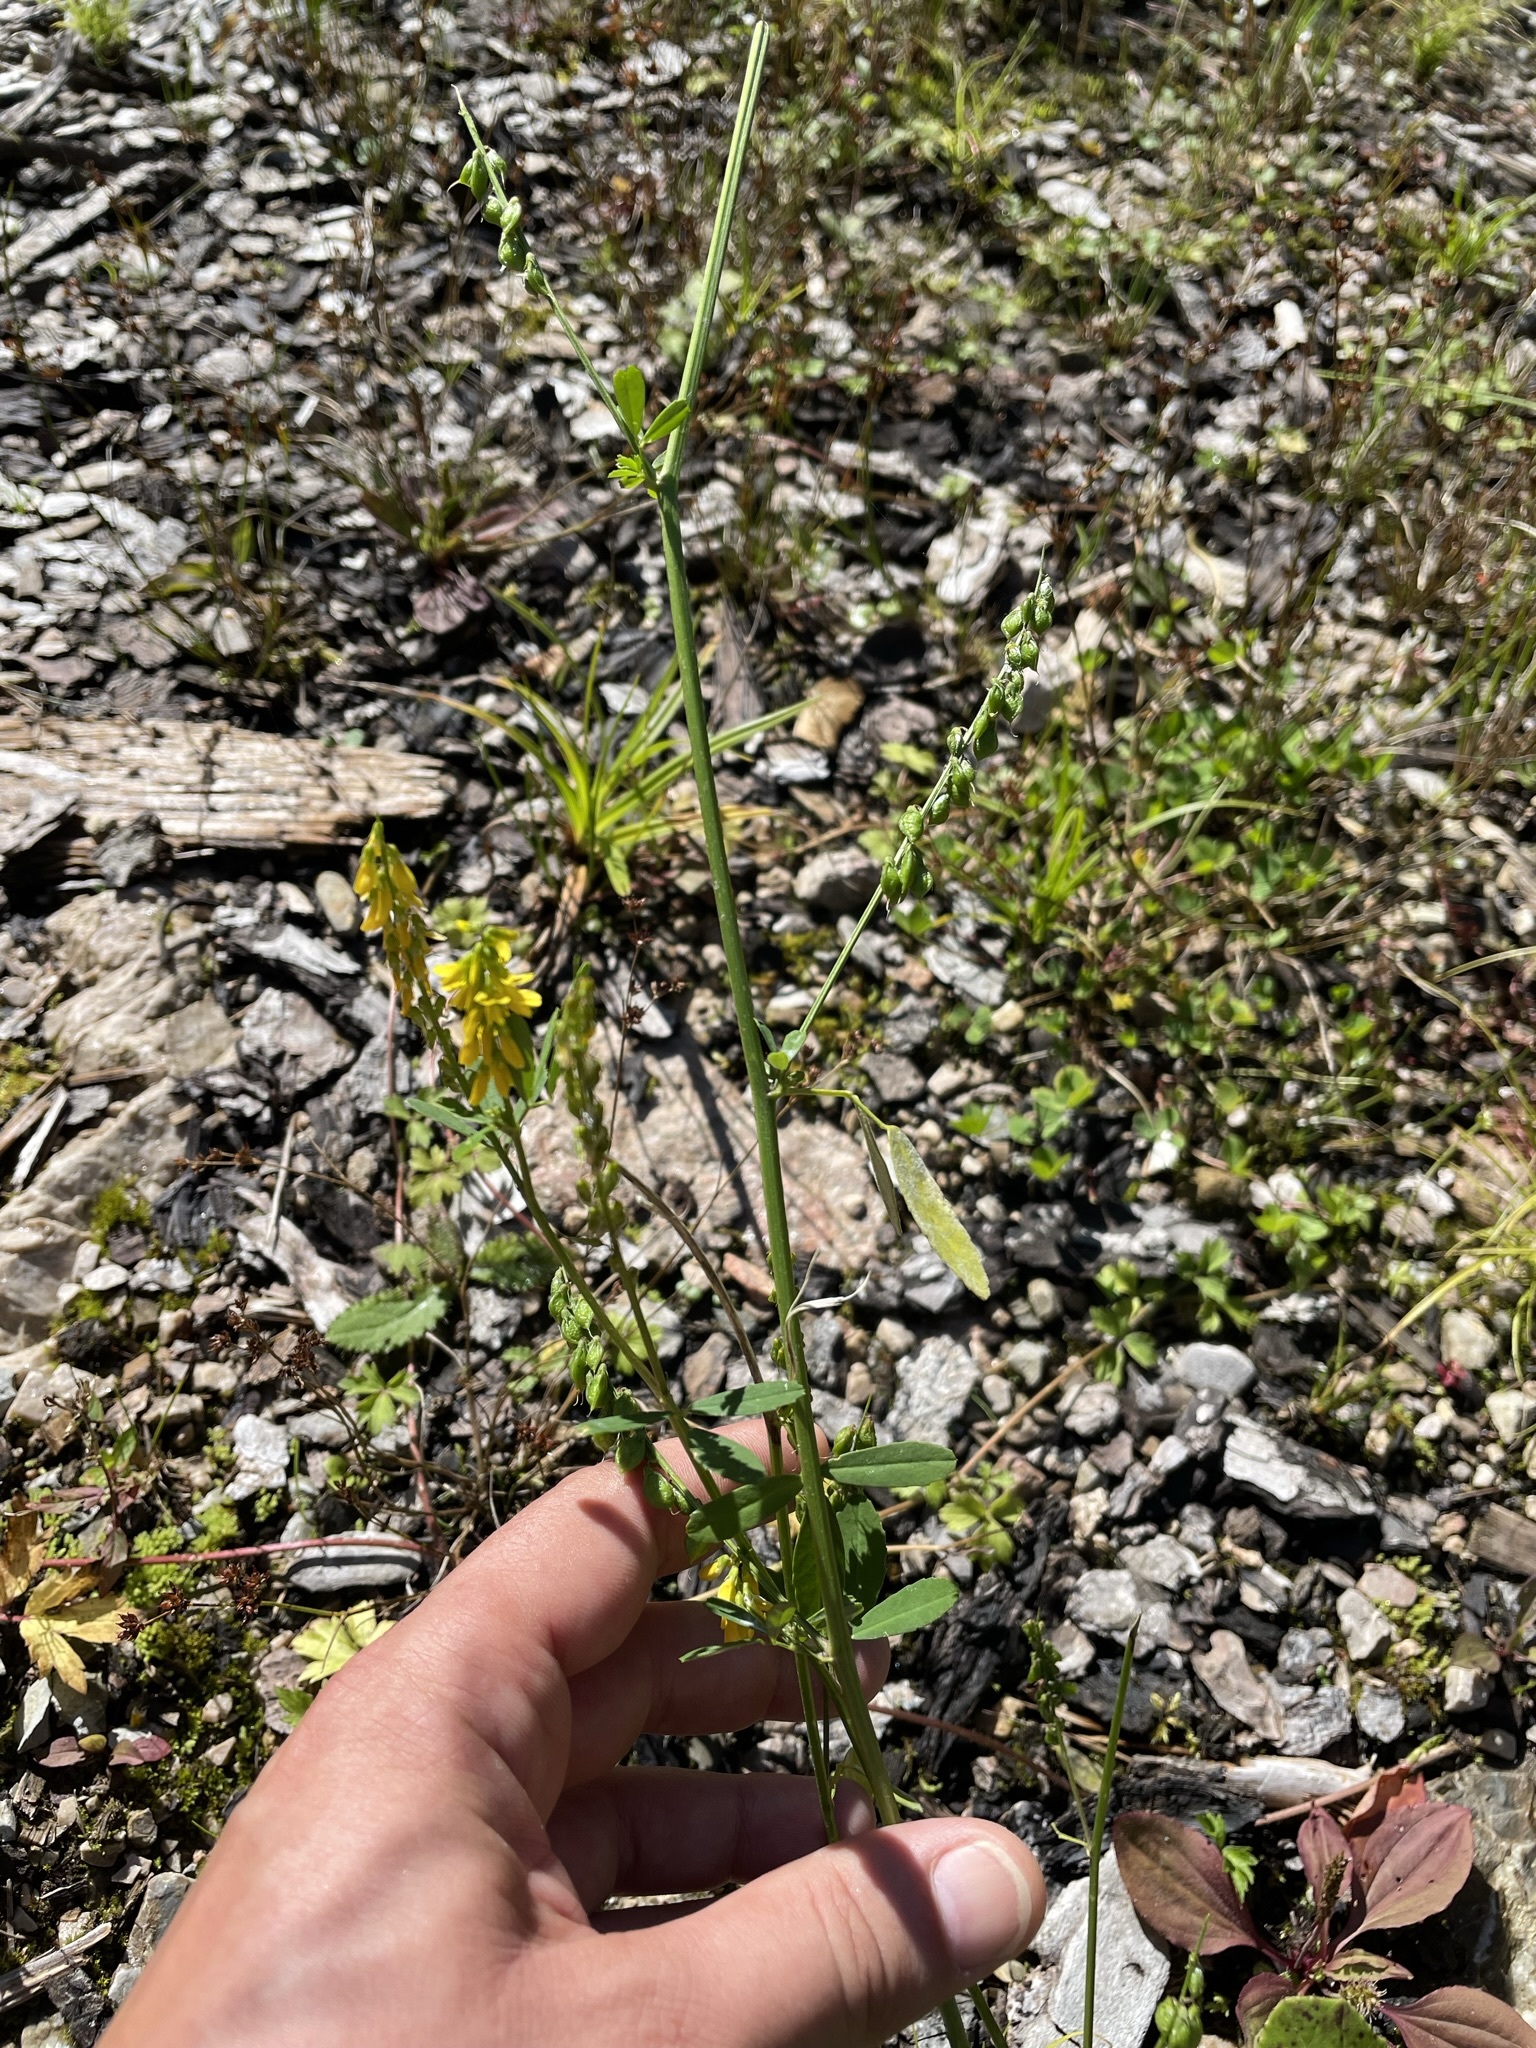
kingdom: Plantae
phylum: Tracheophyta
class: Magnoliopsida
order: Fabales
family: Fabaceae
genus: Melilotus
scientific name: Melilotus officinalis
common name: Sweetclover
